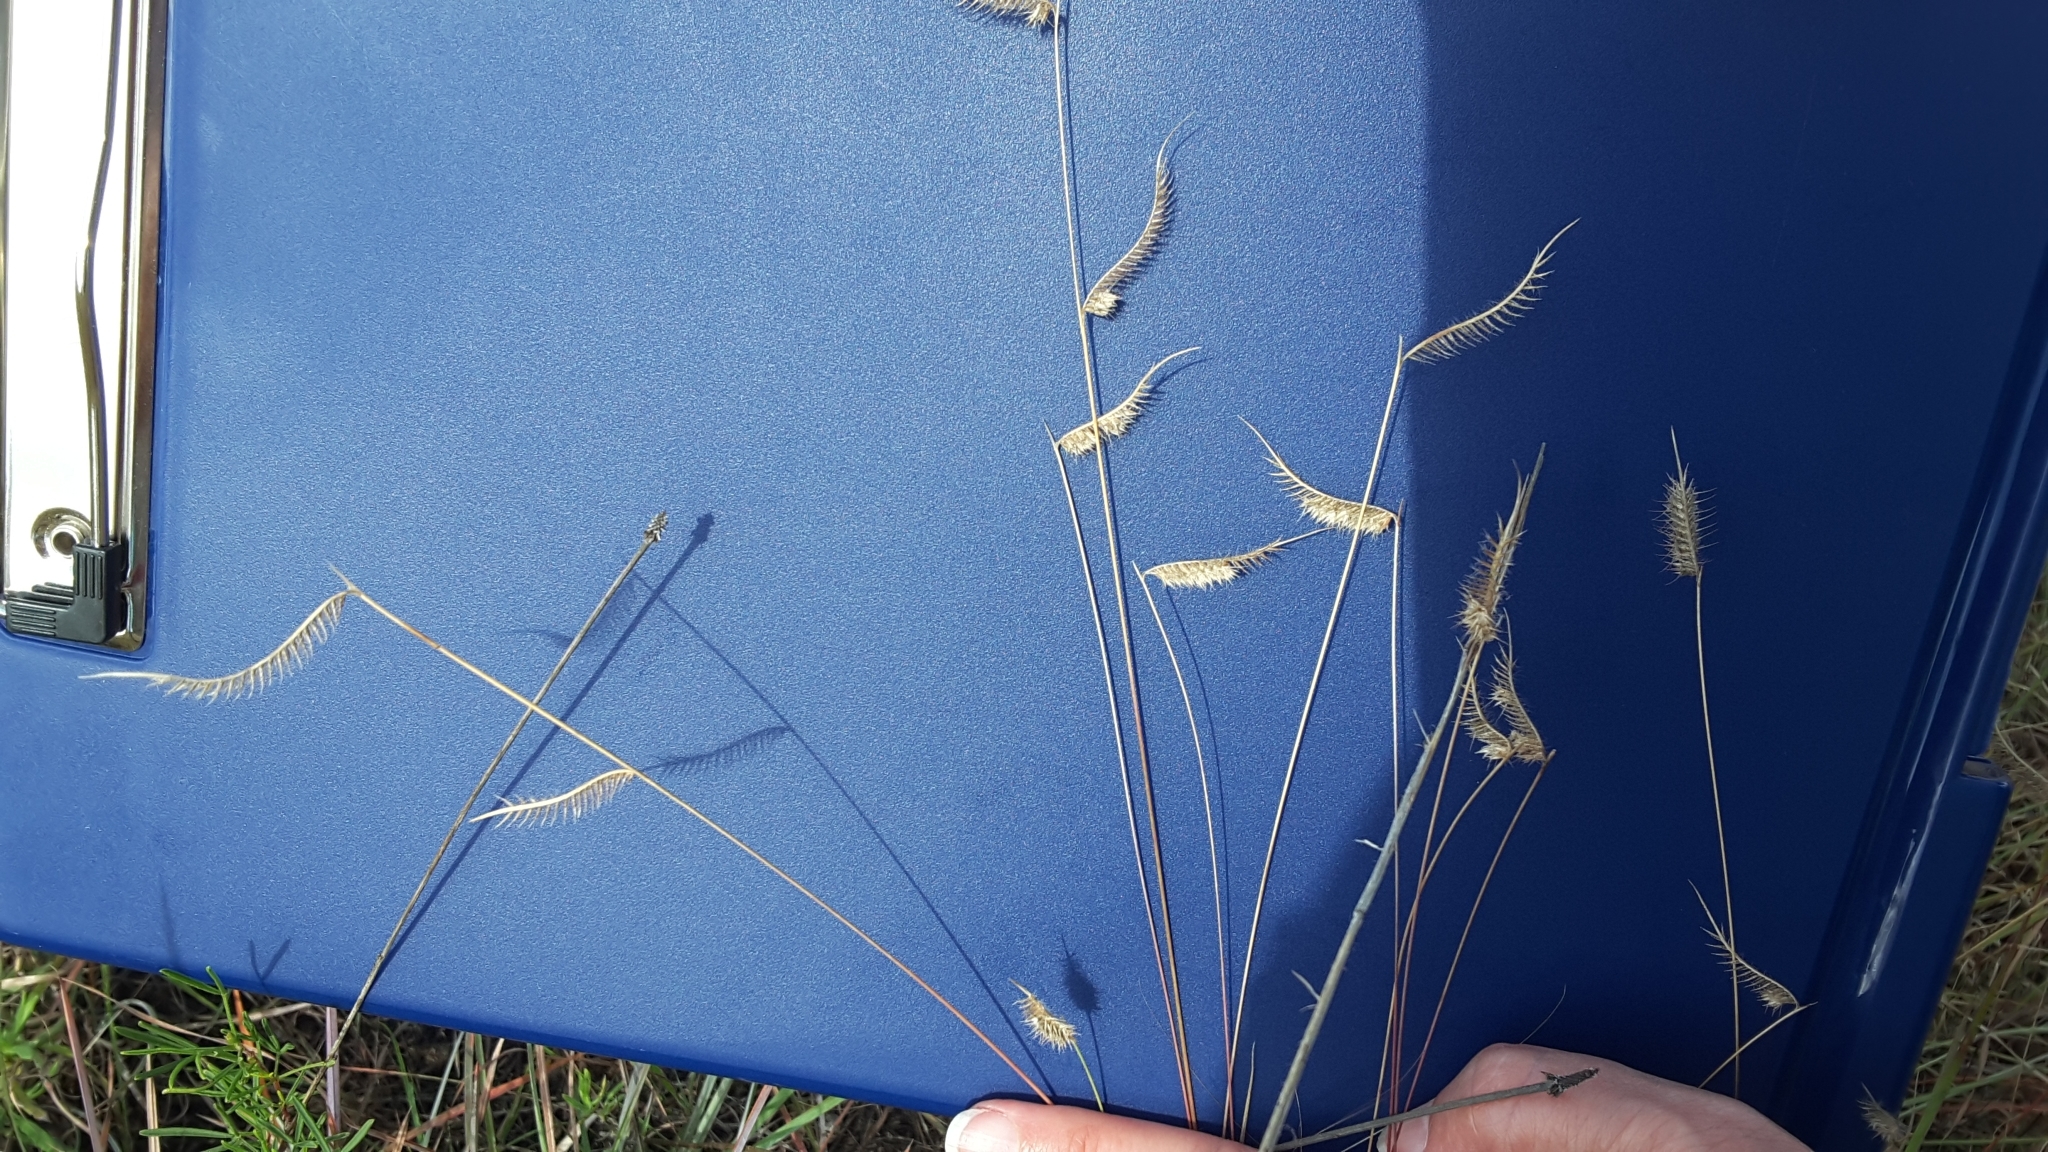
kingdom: Plantae
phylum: Tracheophyta
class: Liliopsida
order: Poales
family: Poaceae
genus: Bouteloua
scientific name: Bouteloua hirsuta
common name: Hairy grama
